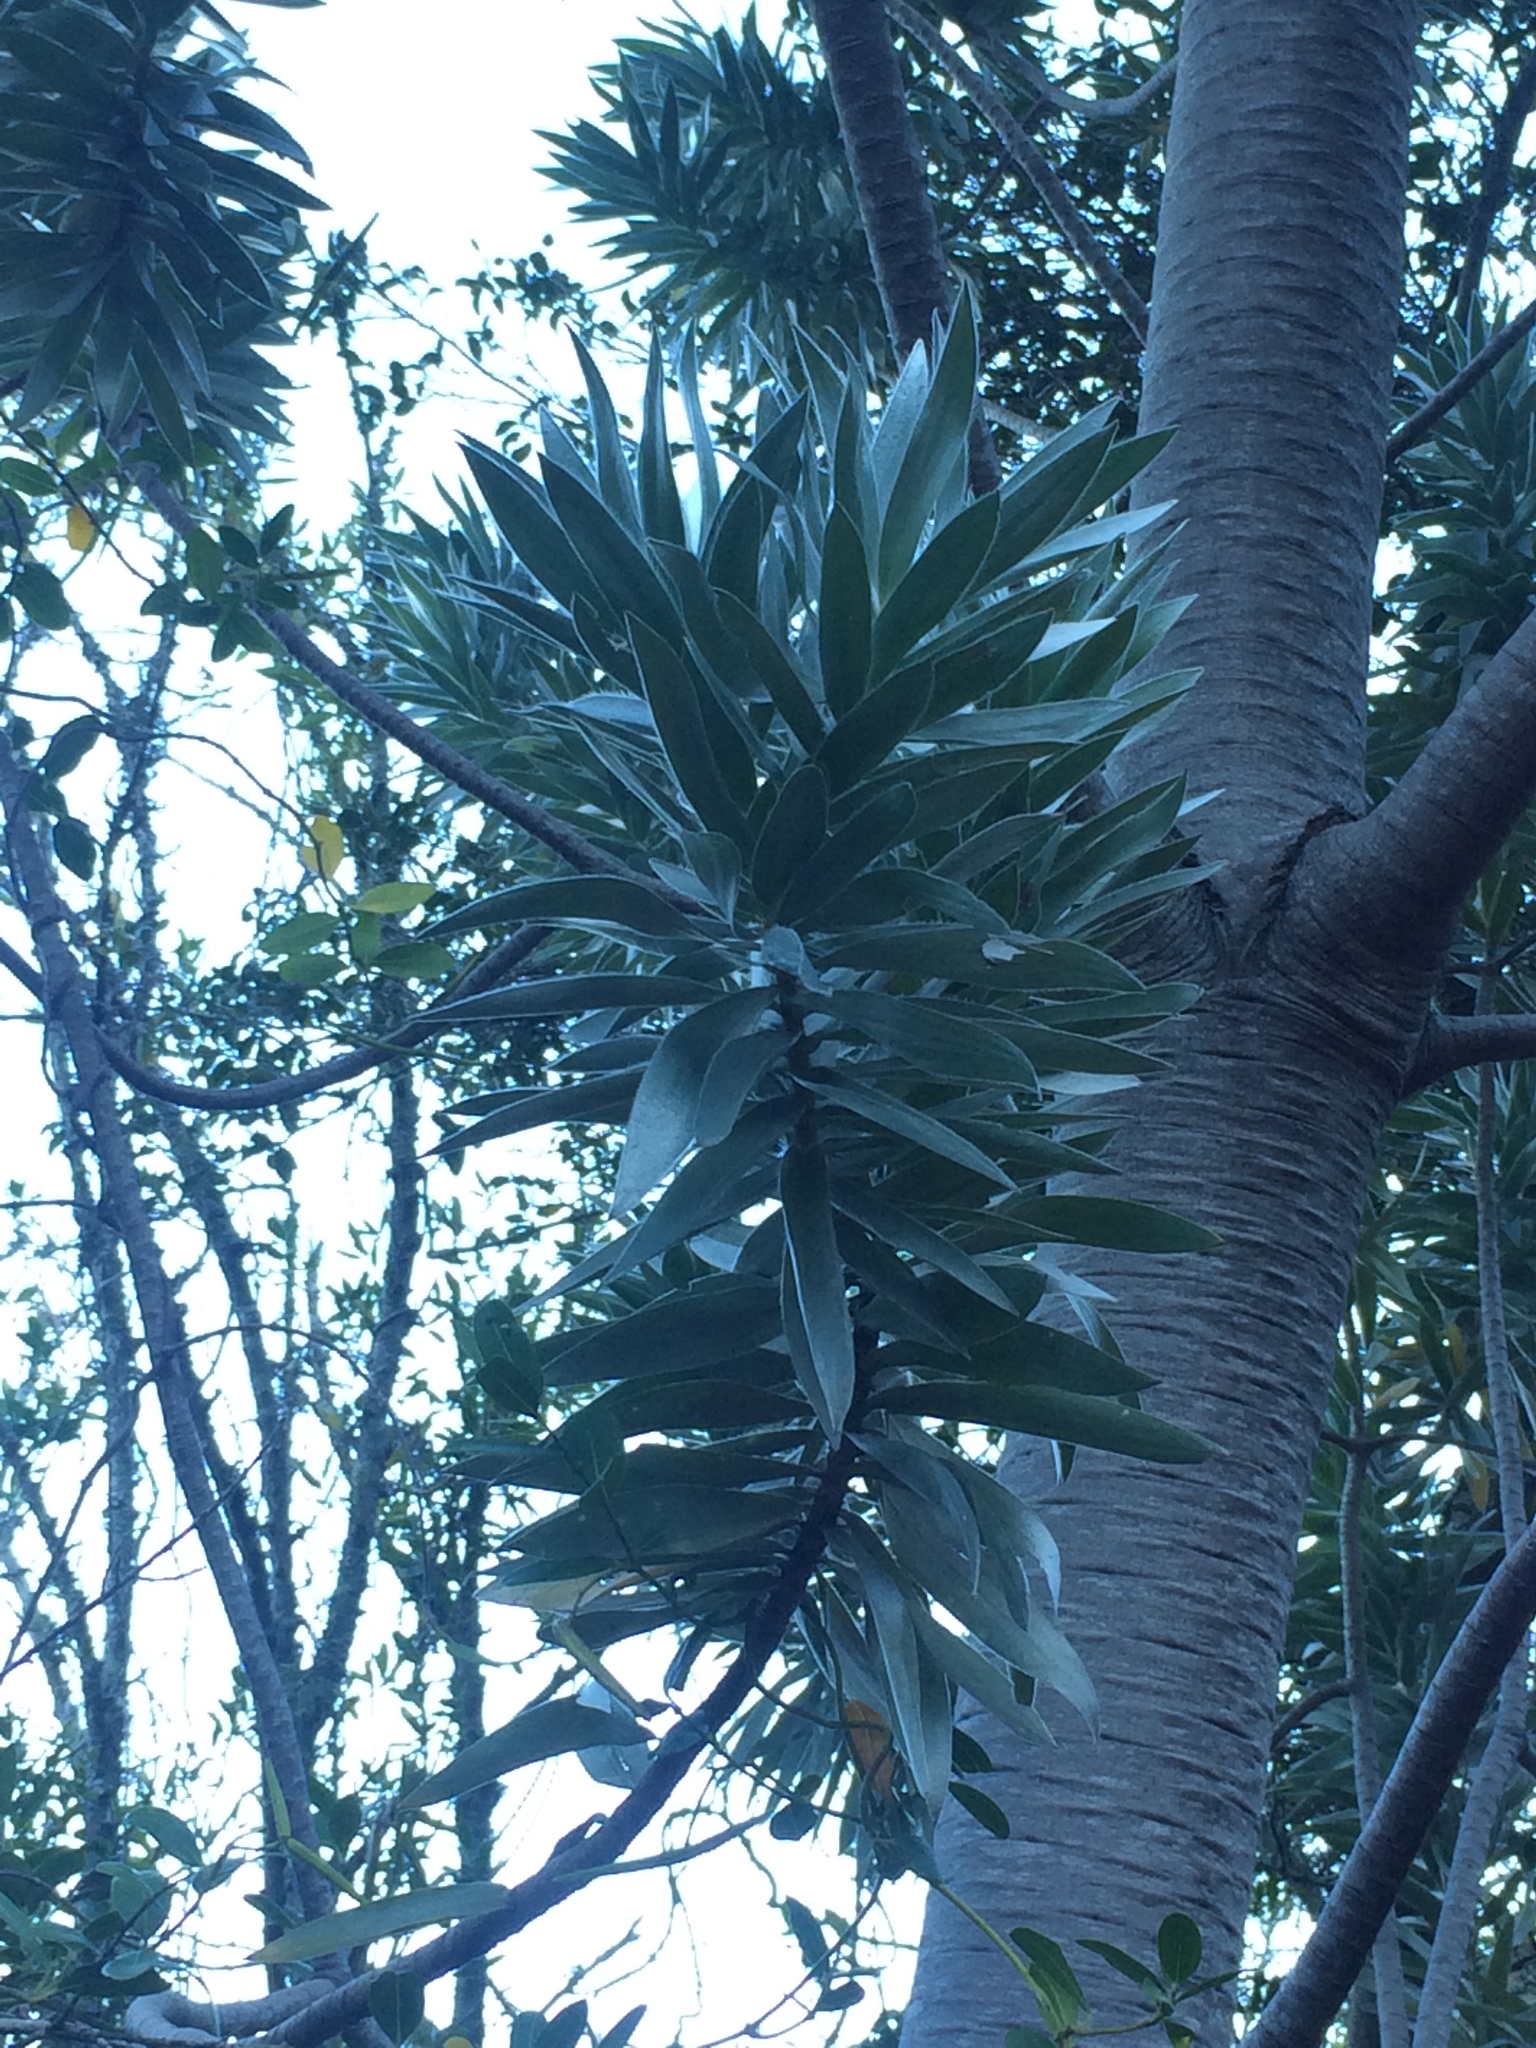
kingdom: Plantae
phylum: Tracheophyta
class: Magnoliopsida
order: Proteales
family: Proteaceae
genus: Leucadendron
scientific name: Leucadendron argenteum
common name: Cape silver tree
